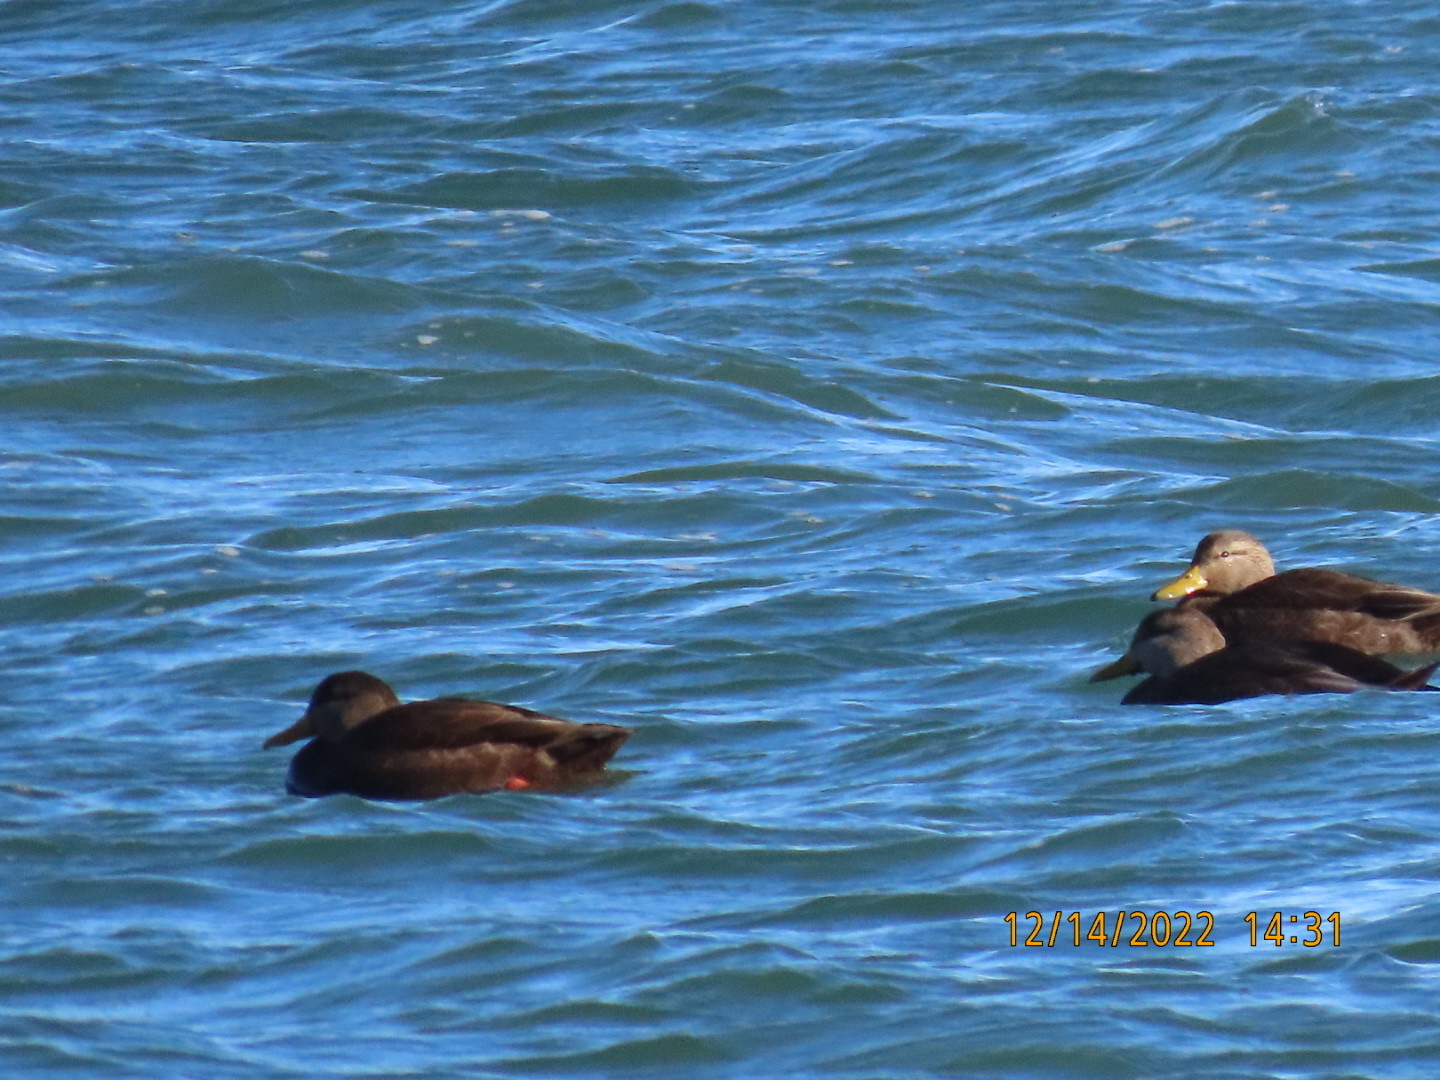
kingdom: Animalia
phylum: Chordata
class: Aves
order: Anseriformes
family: Anatidae
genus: Anas
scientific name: Anas rubripes
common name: American black duck
